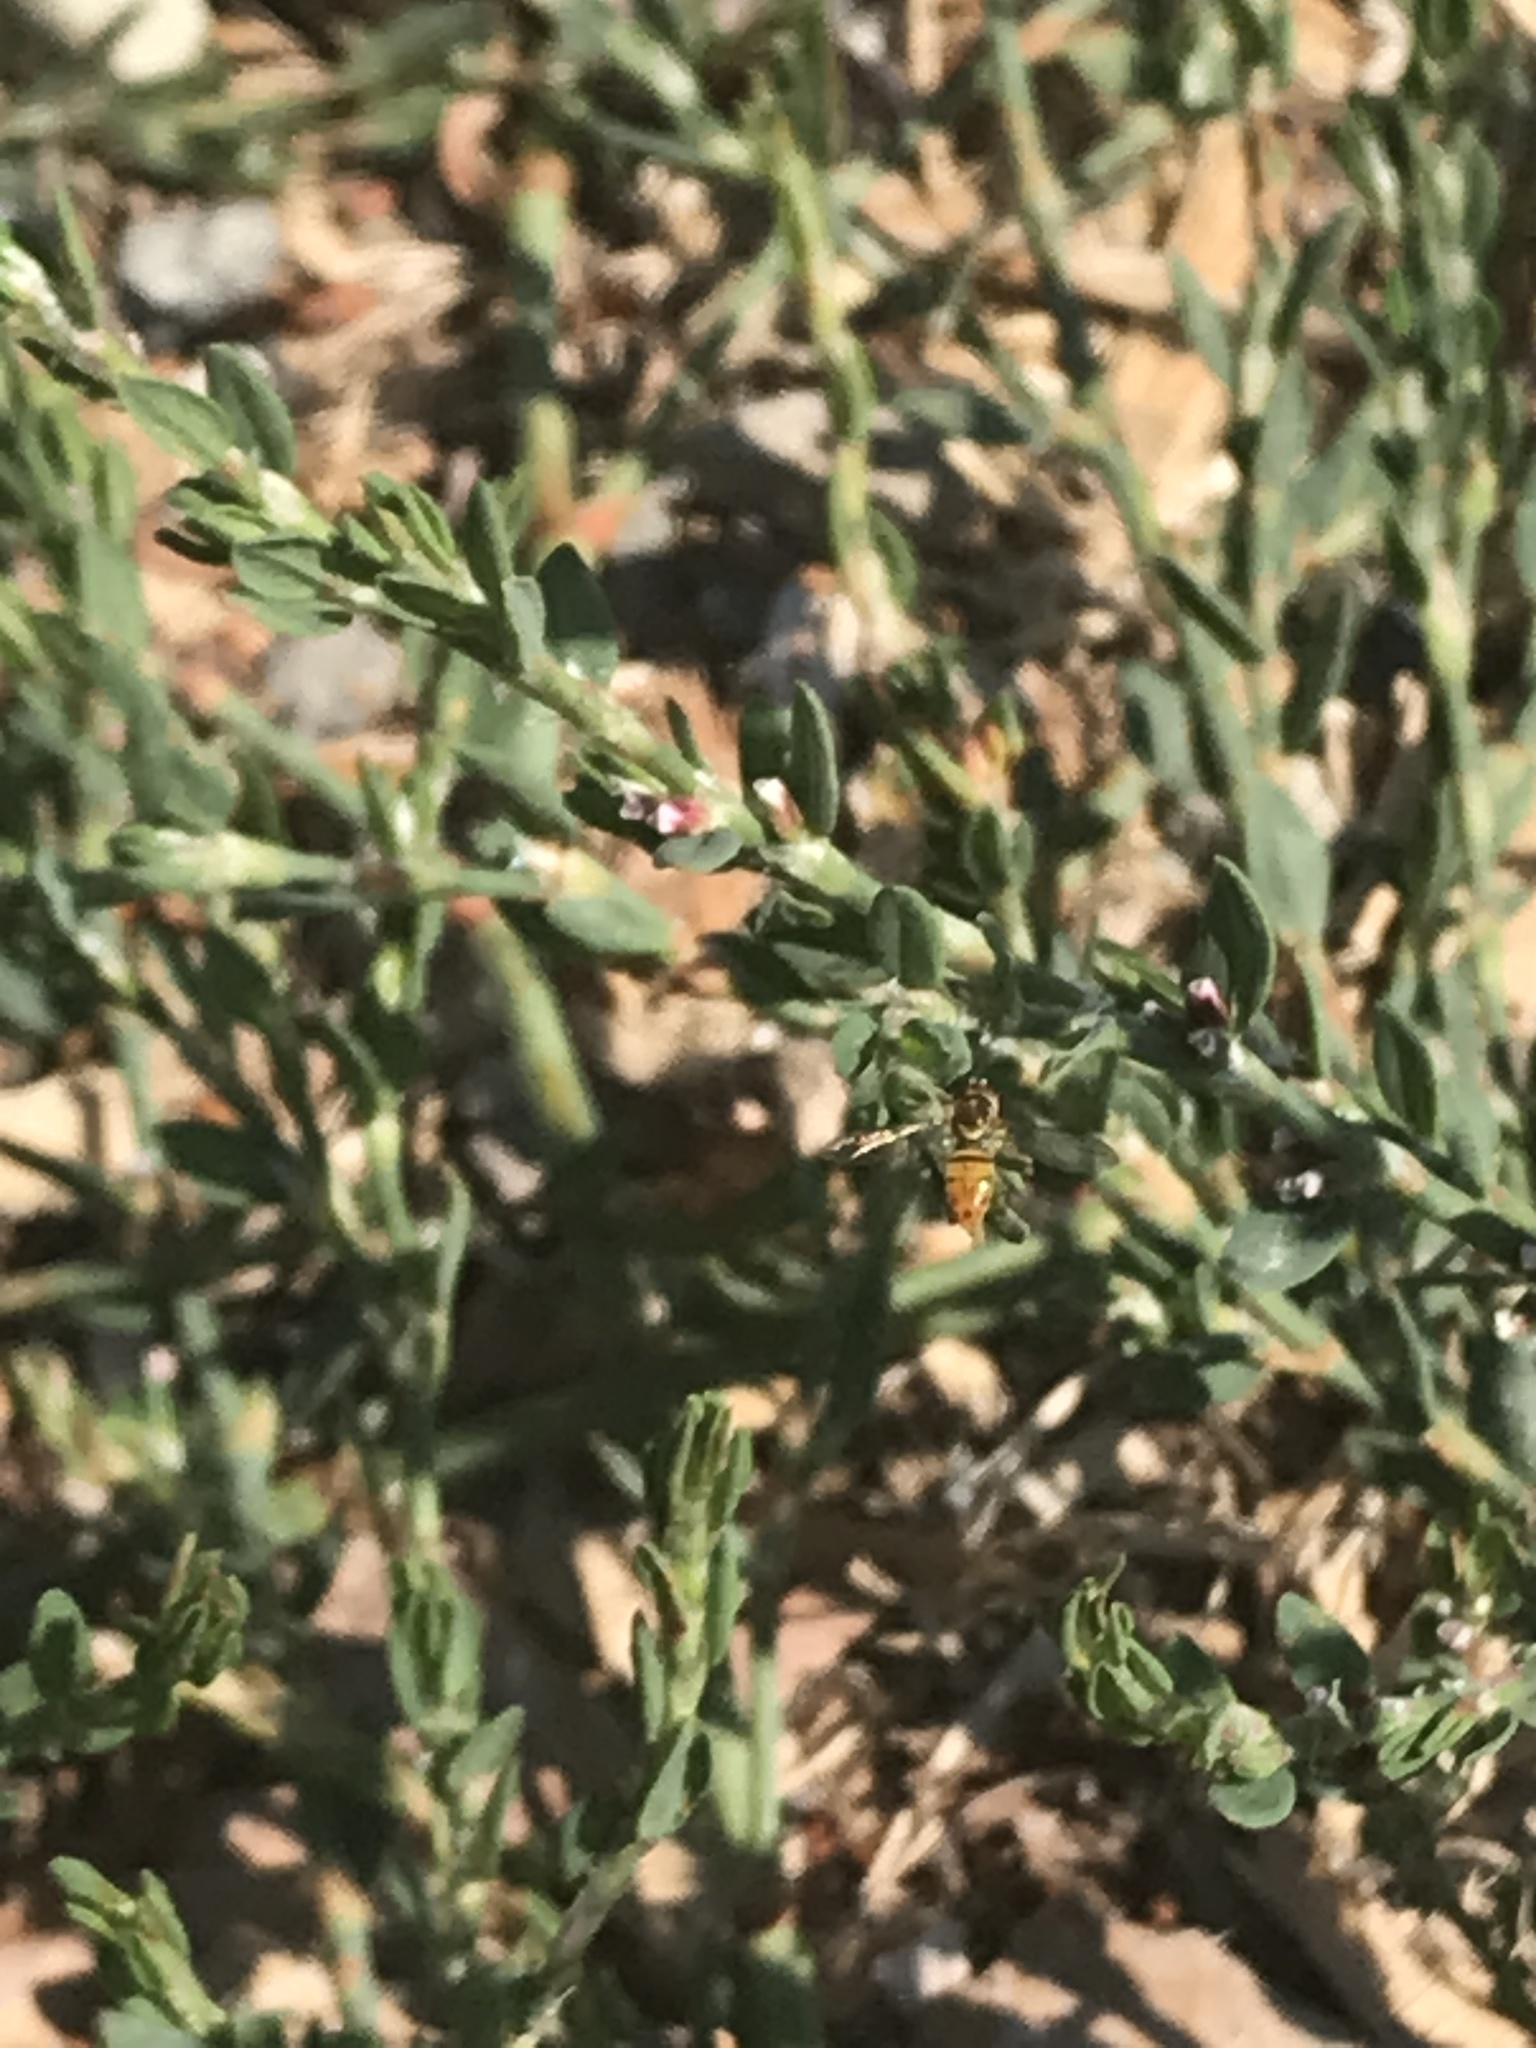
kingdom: Animalia
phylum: Arthropoda
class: Insecta
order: Diptera
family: Syrphidae
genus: Toxomerus
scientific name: Toxomerus marginatus
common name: Syrphid fly
